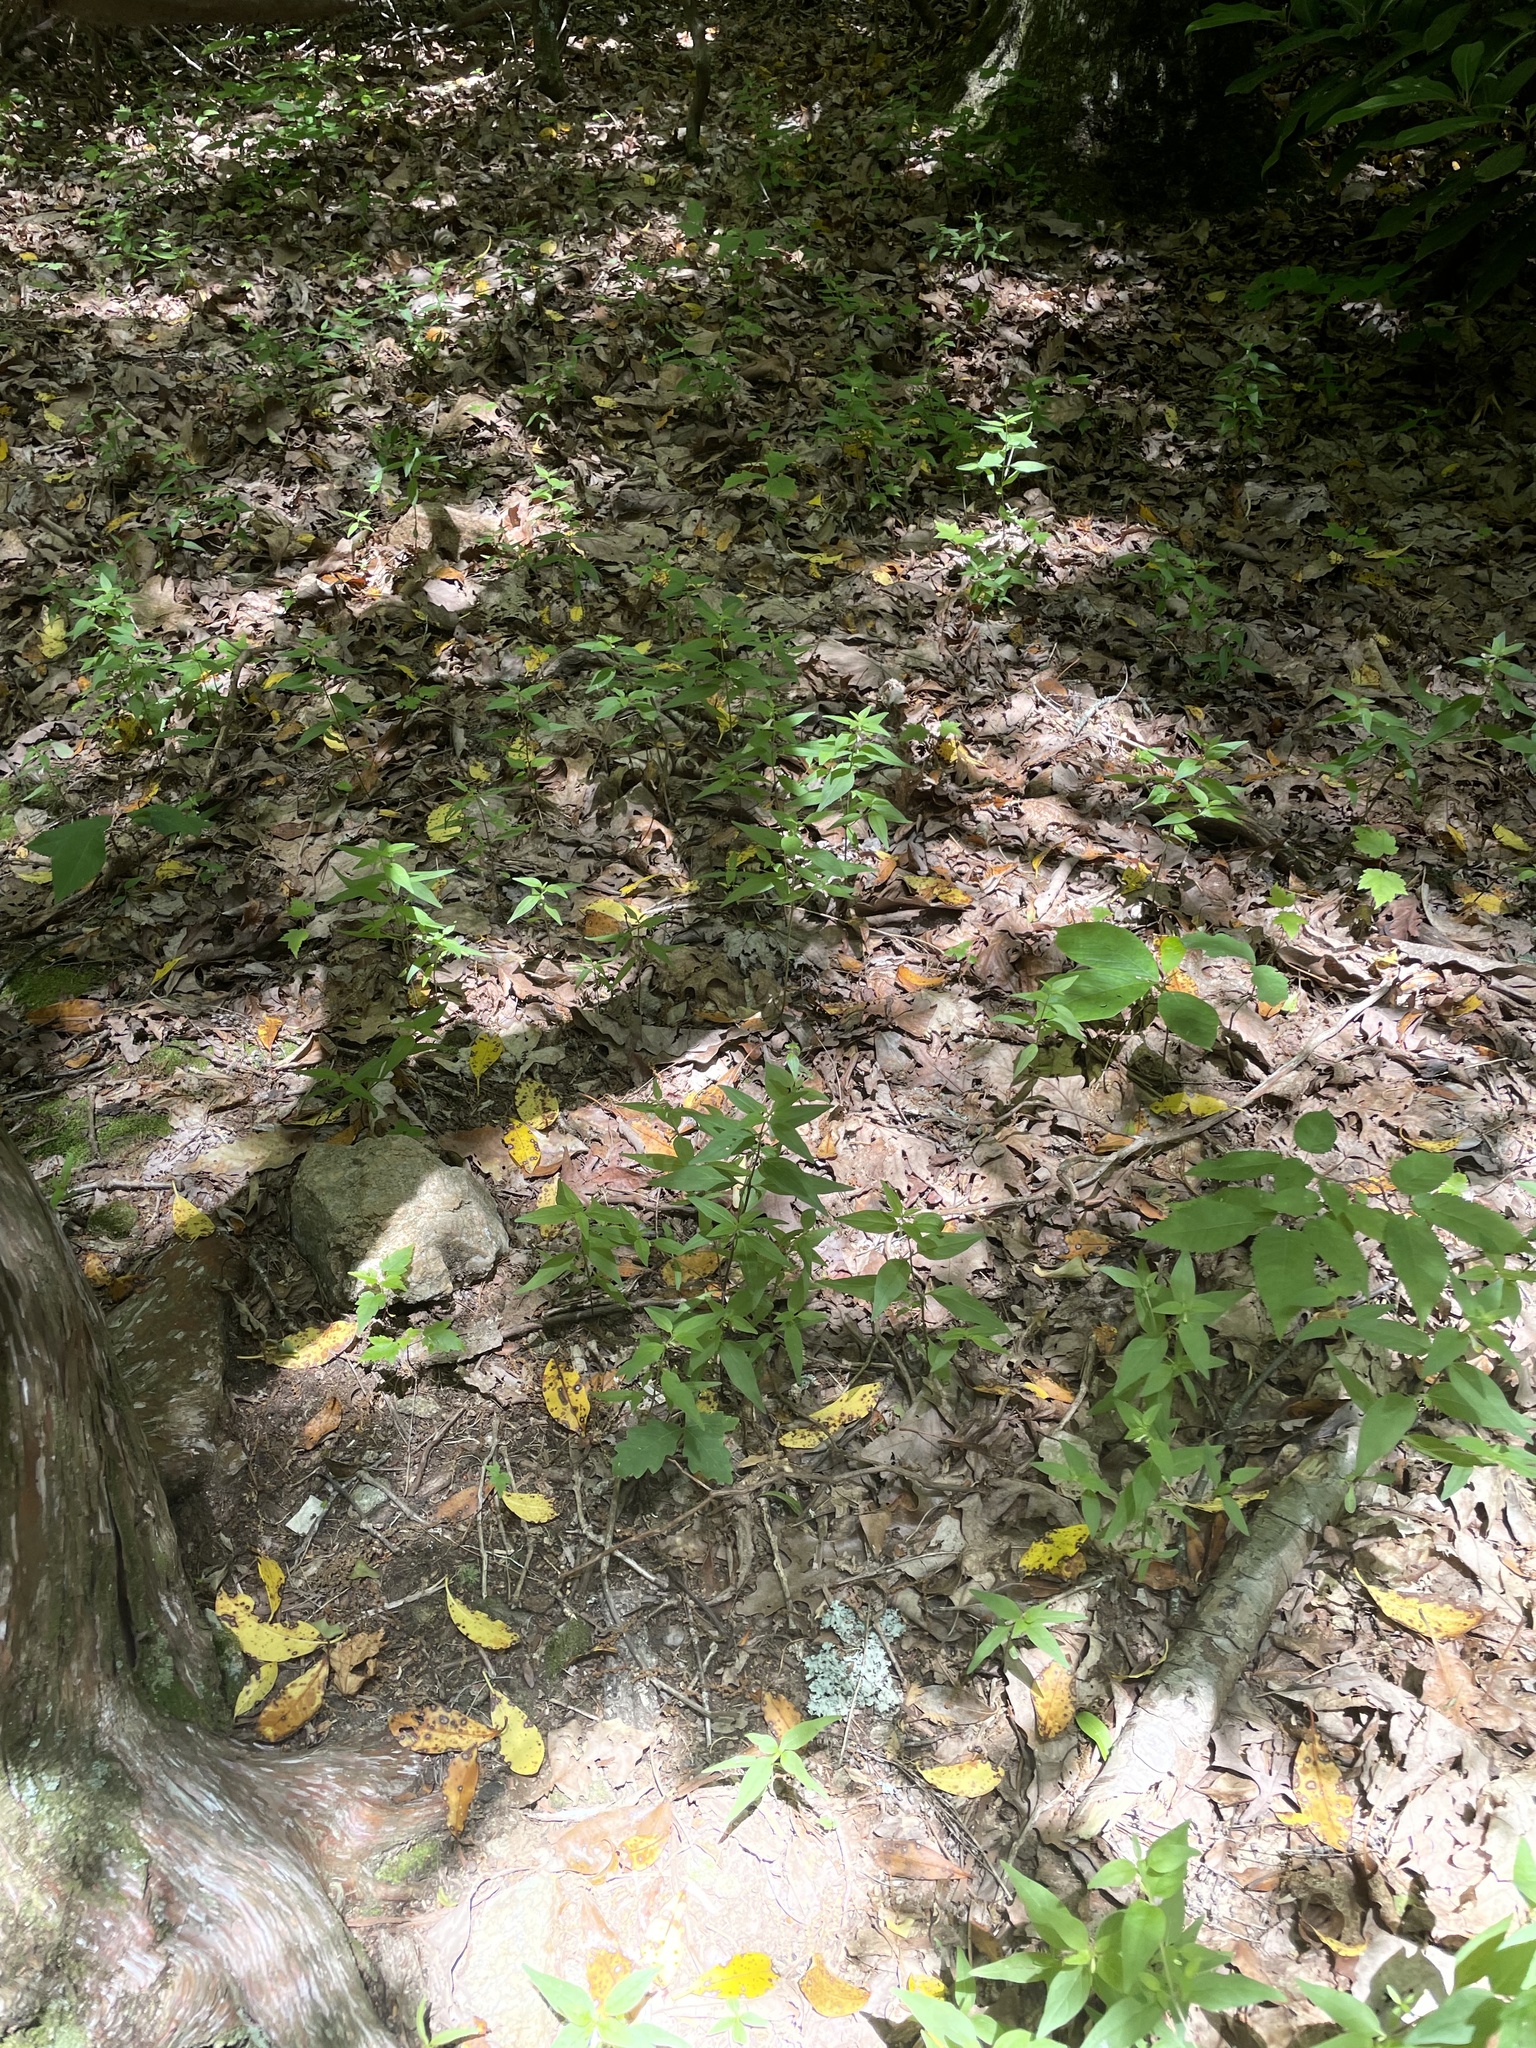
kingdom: Plantae
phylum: Tracheophyta
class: Magnoliopsida
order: Lamiales
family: Orobanchaceae
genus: Melampyrum
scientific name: Melampyrum lineare
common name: American cow-wheat
